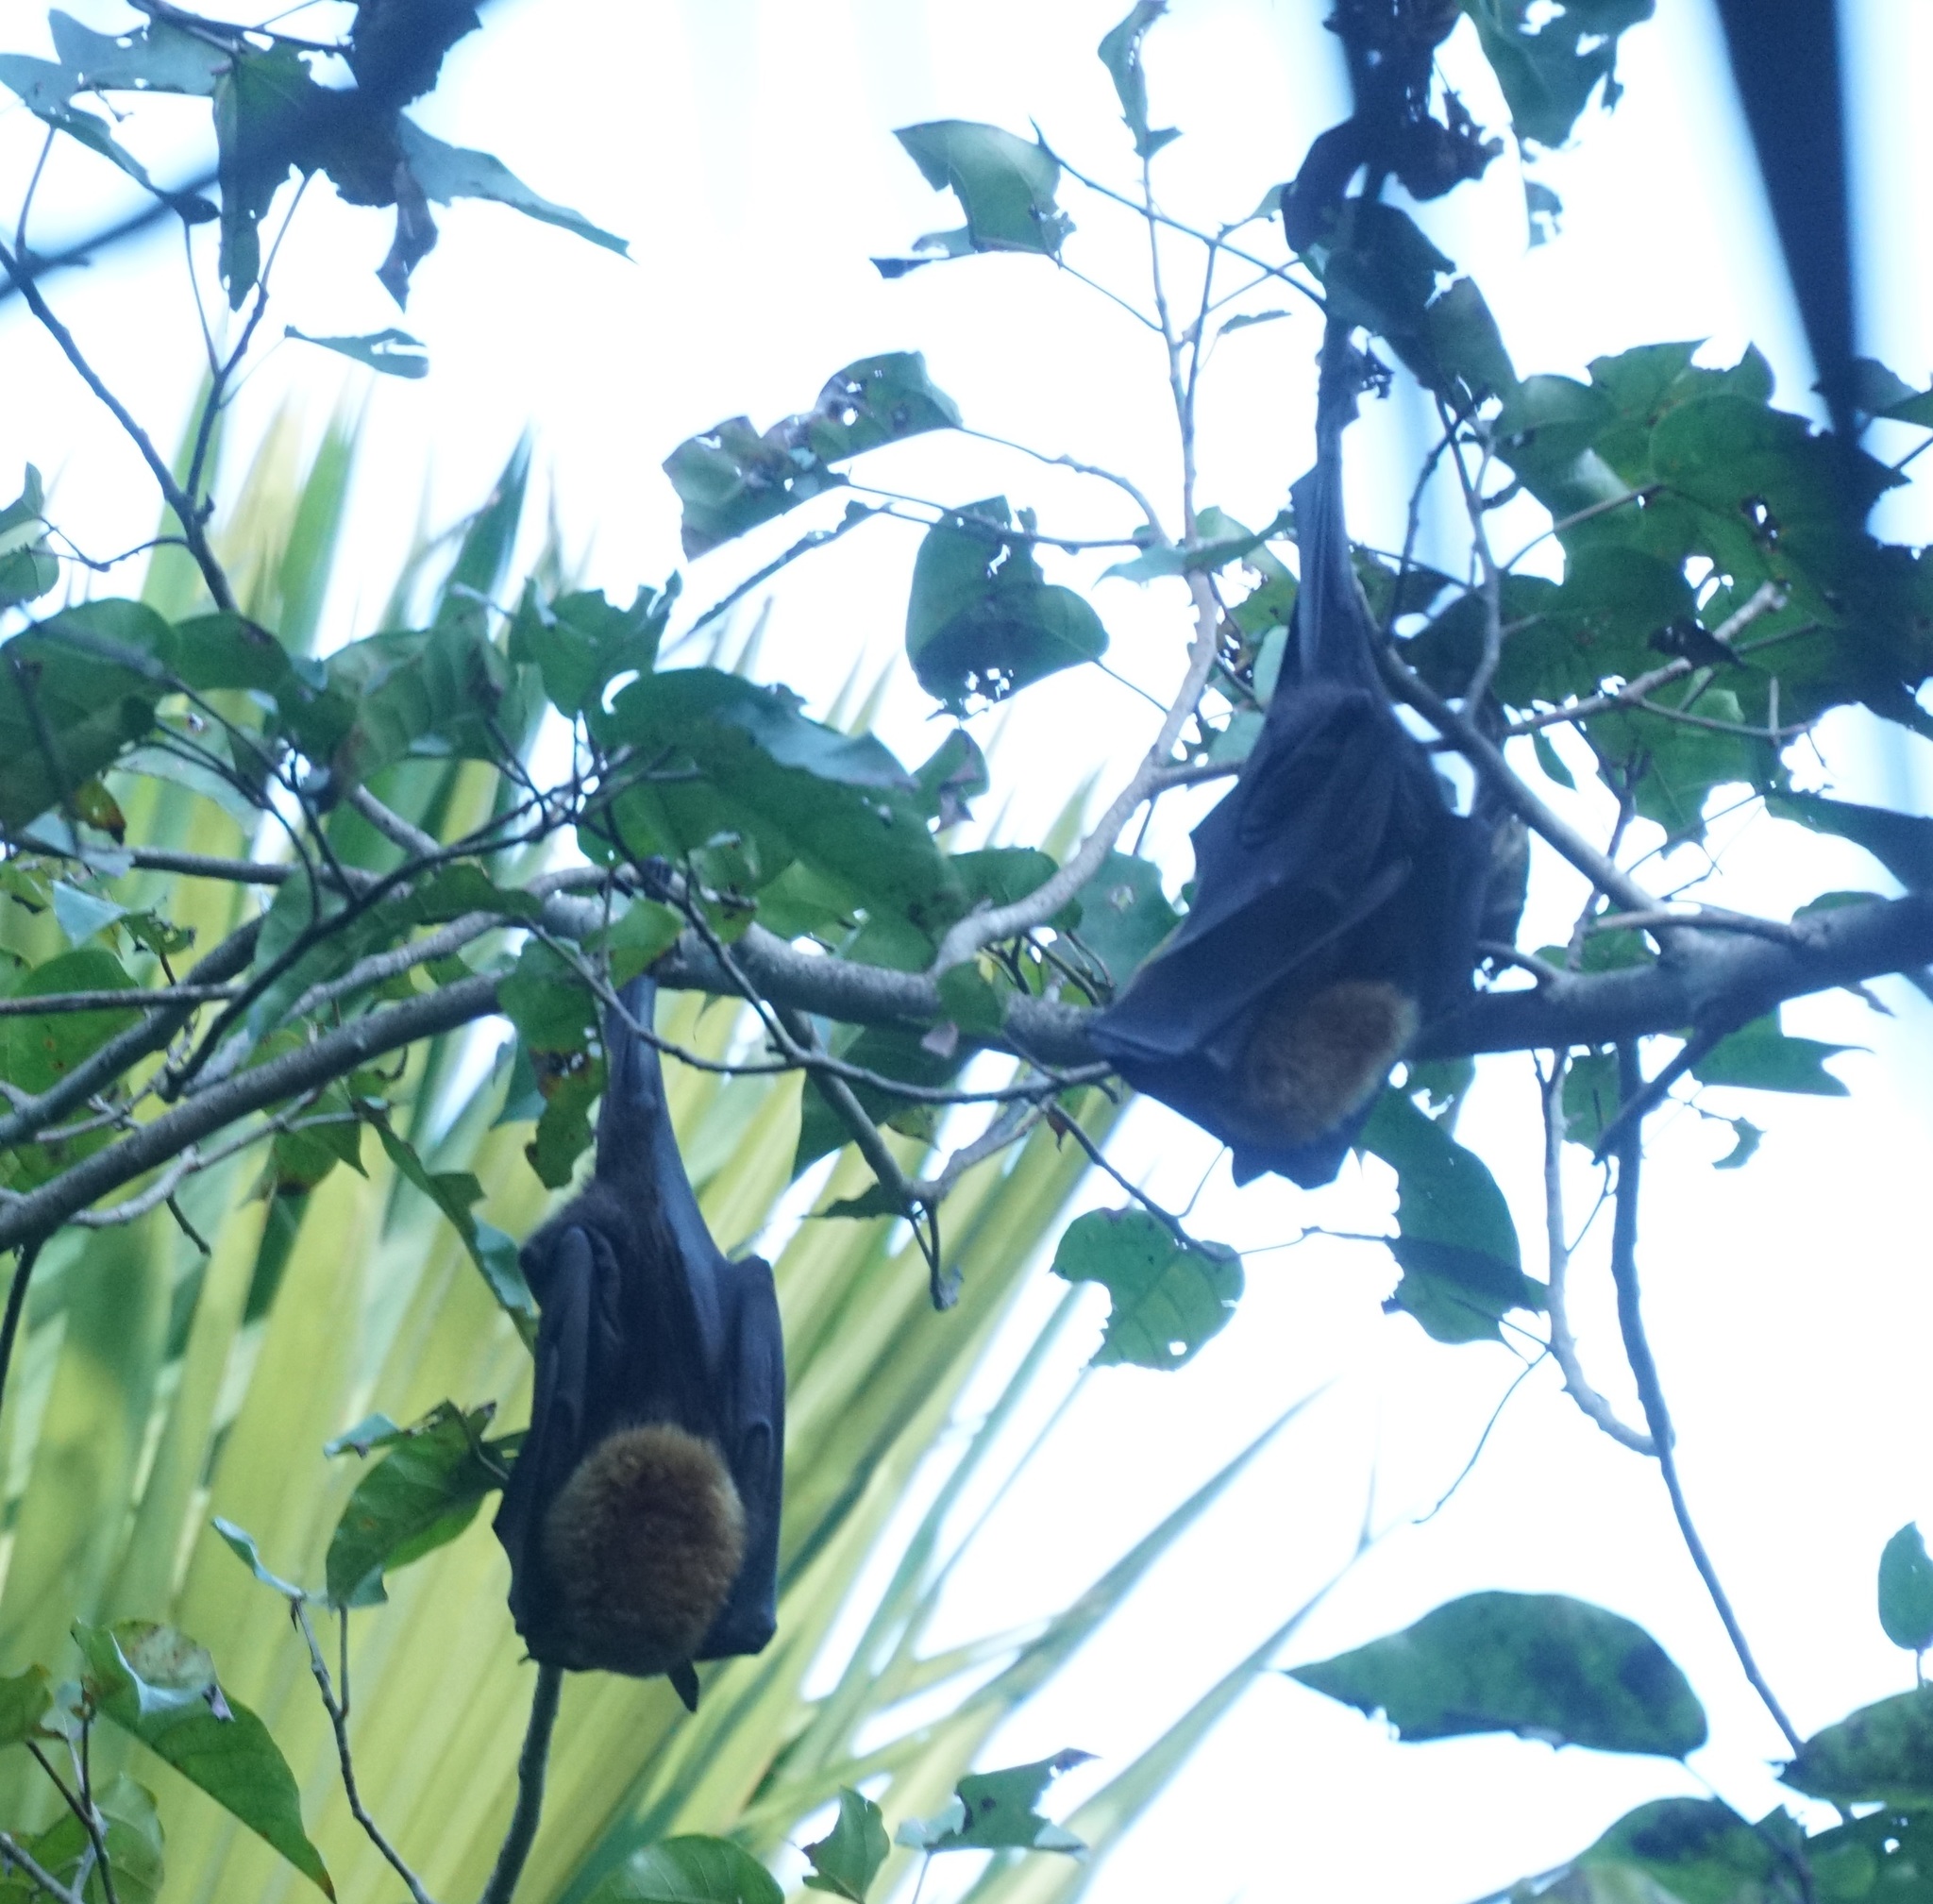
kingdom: Animalia
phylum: Chordata
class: Mammalia
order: Chiroptera
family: Pteropodidae
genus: Pteropus
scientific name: Pteropus conspicillatus
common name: Spectacled flying fox
